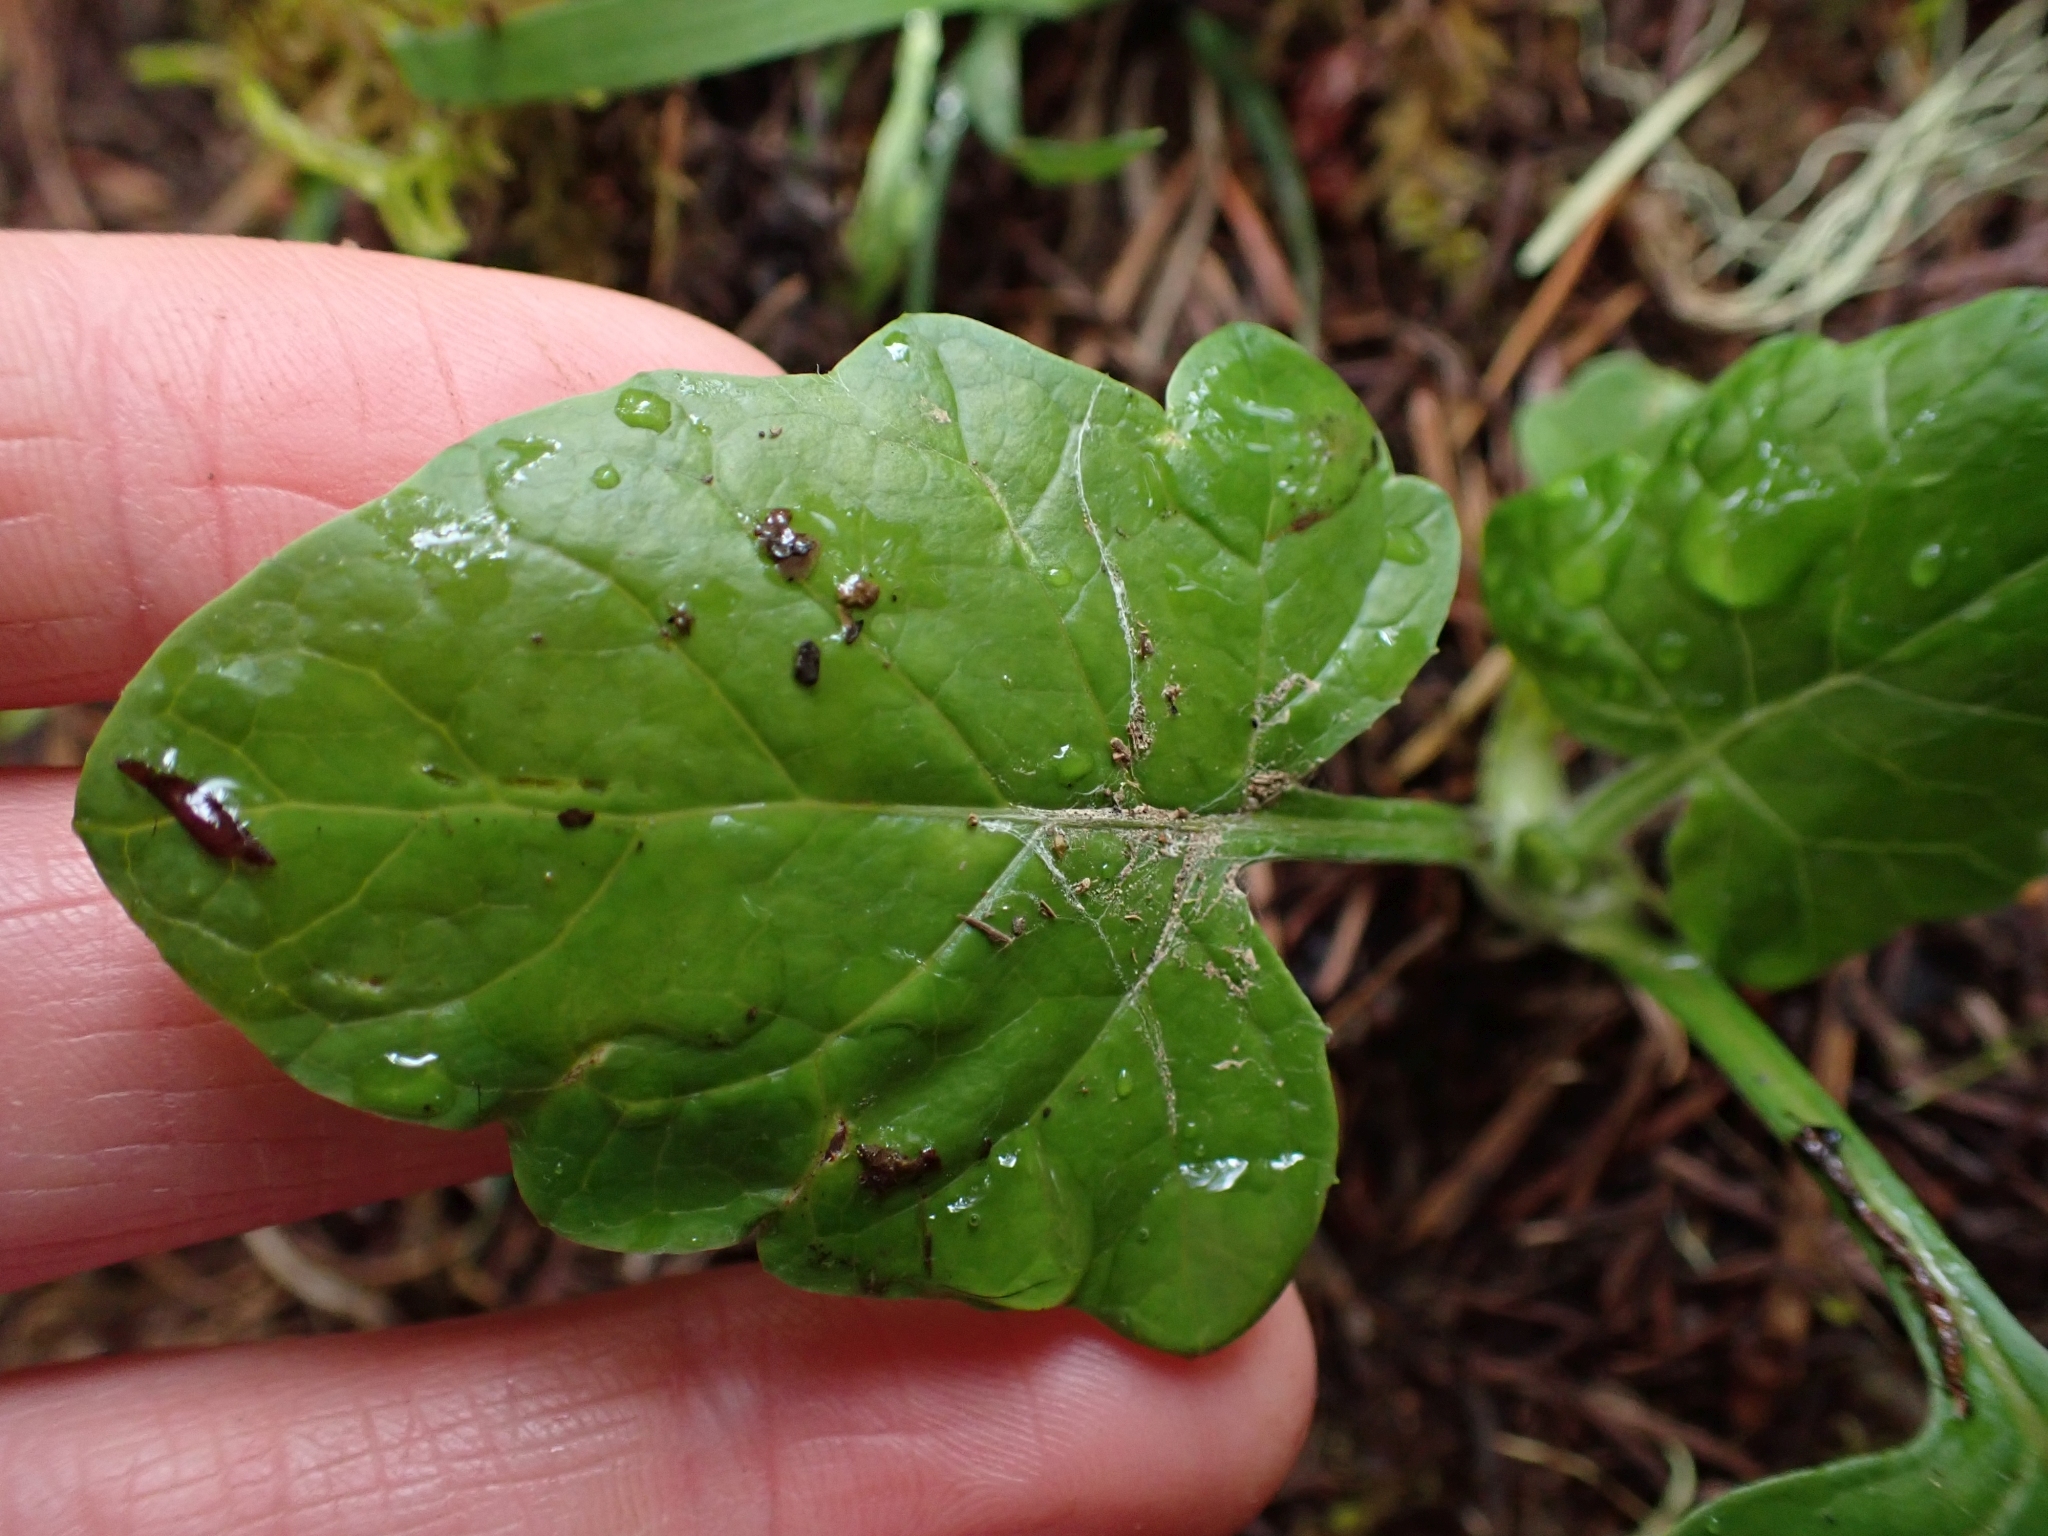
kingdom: Plantae
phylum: Tracheophyta
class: Magnoliopsida
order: Asterales
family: Asteraceae
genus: Adenocaulon
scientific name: Adenocaulon bicolor
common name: Trailplant
